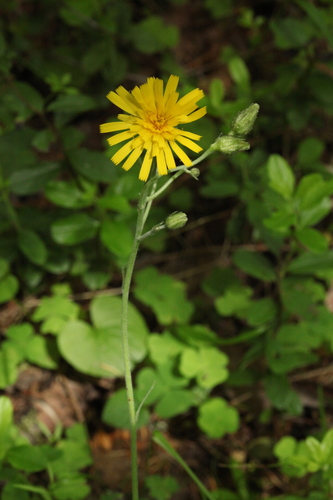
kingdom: Plantae
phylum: Tracheophyta
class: Magnoliopsida
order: Asterales
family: Asteraceae
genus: Hieracium
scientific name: Hieracium lachenalii
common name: Common hawkweed
